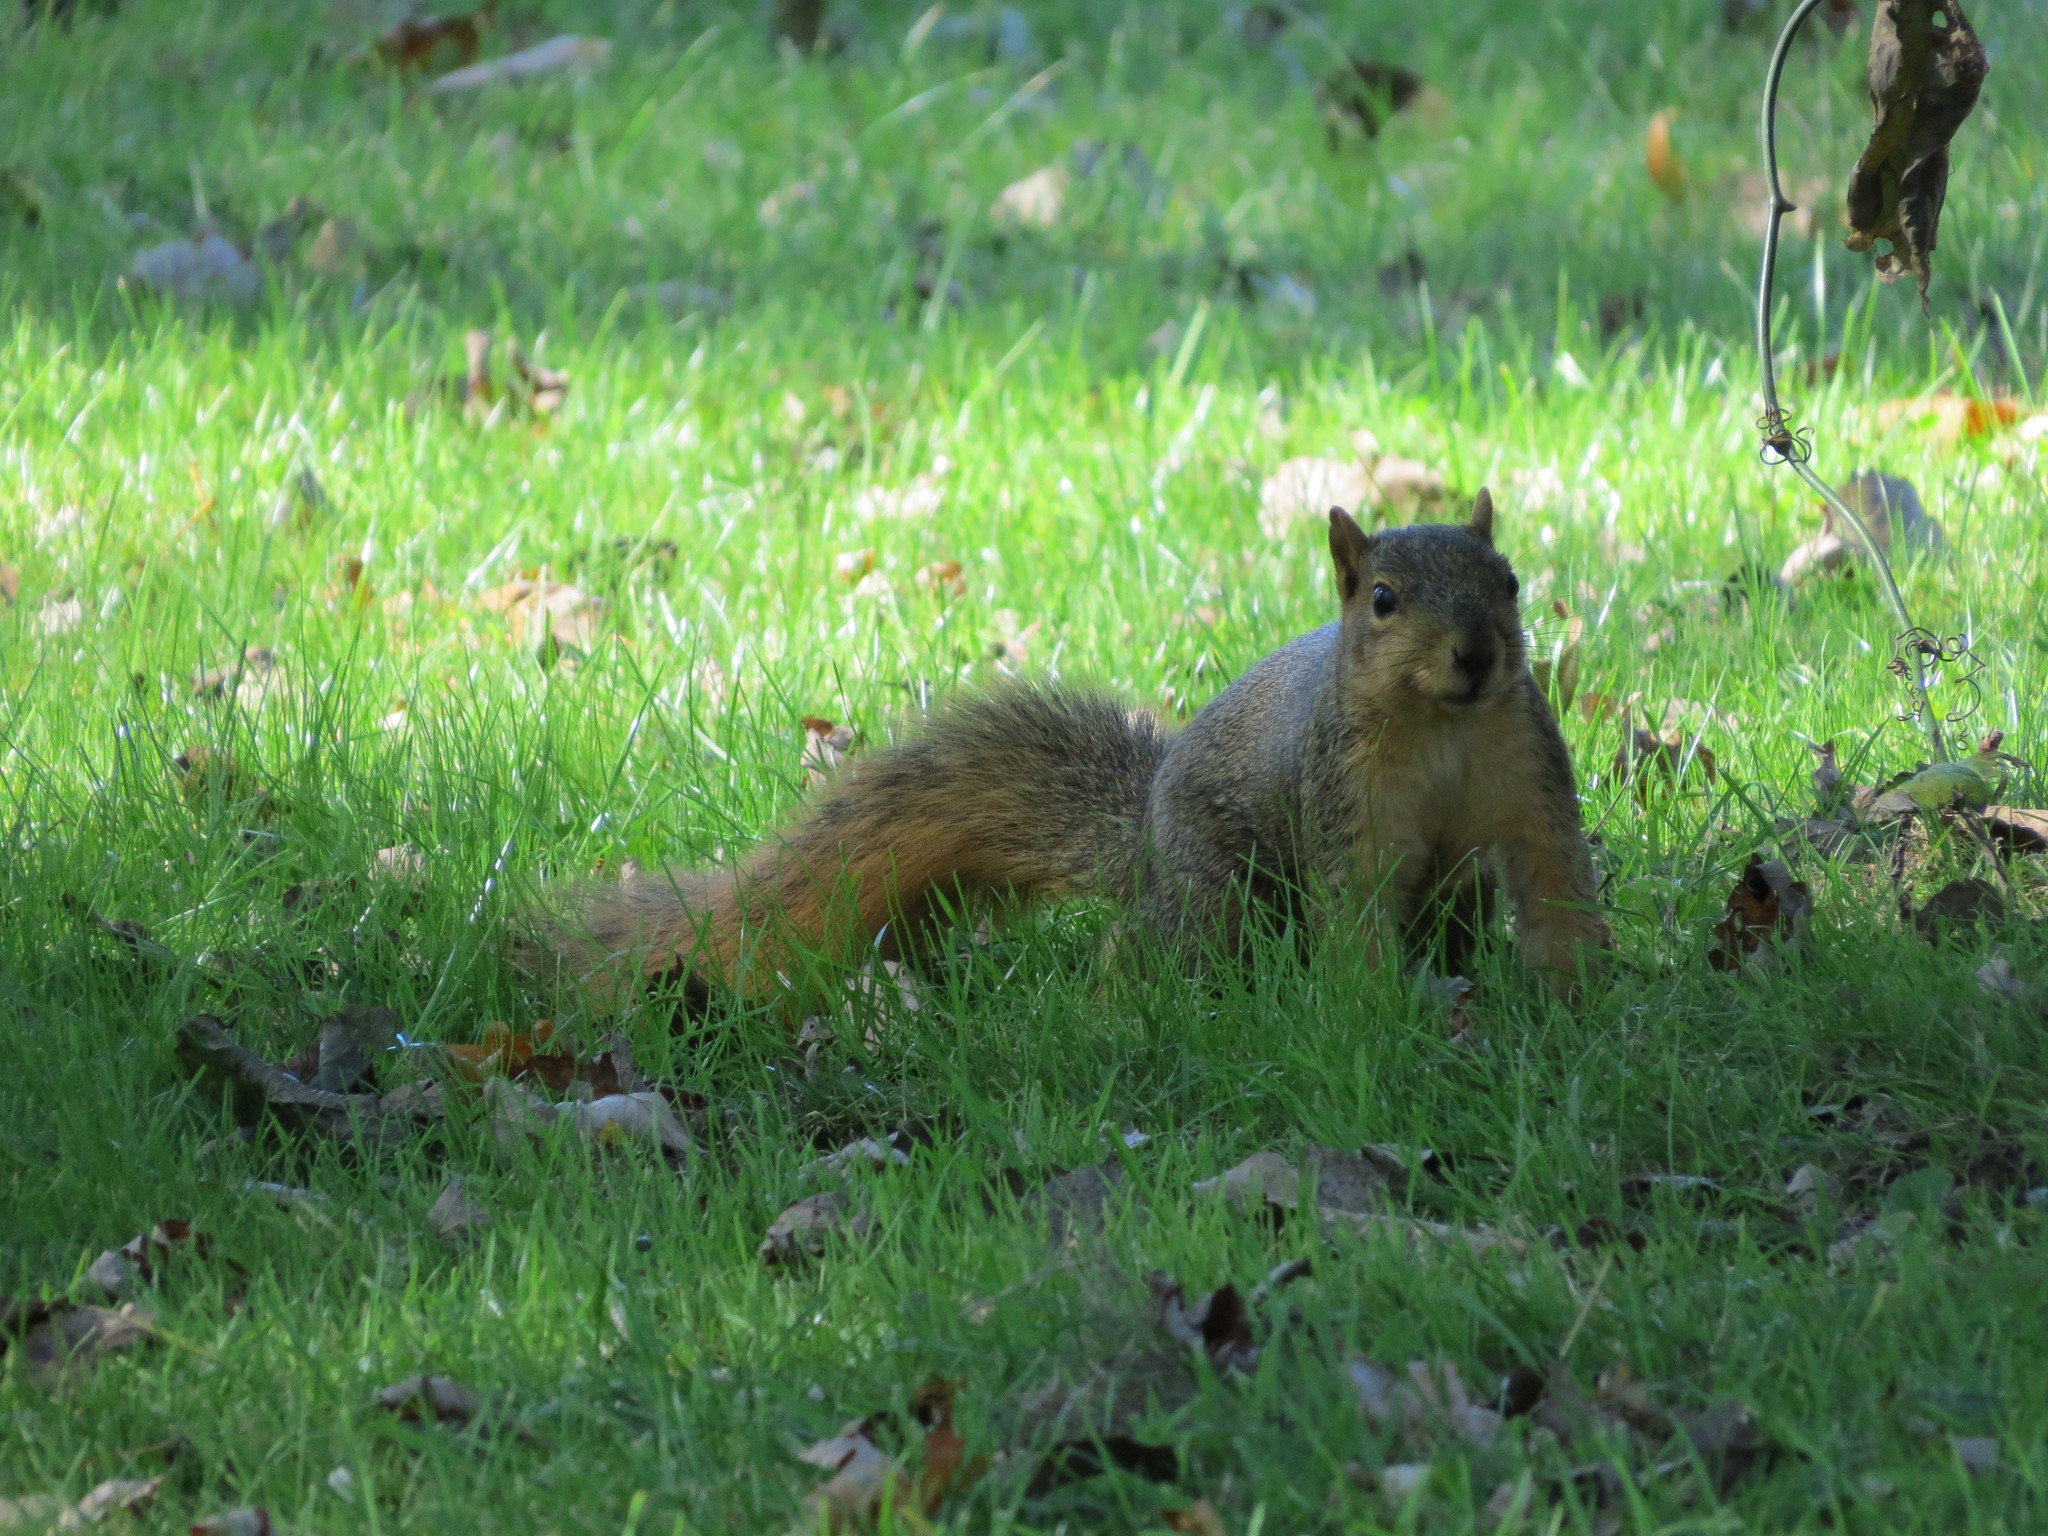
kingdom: Animalia
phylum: Chordata
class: Mammalia
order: Rodentia
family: Sciuridae
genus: Sciurus
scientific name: Sciurus niger
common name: Fox squirrel
